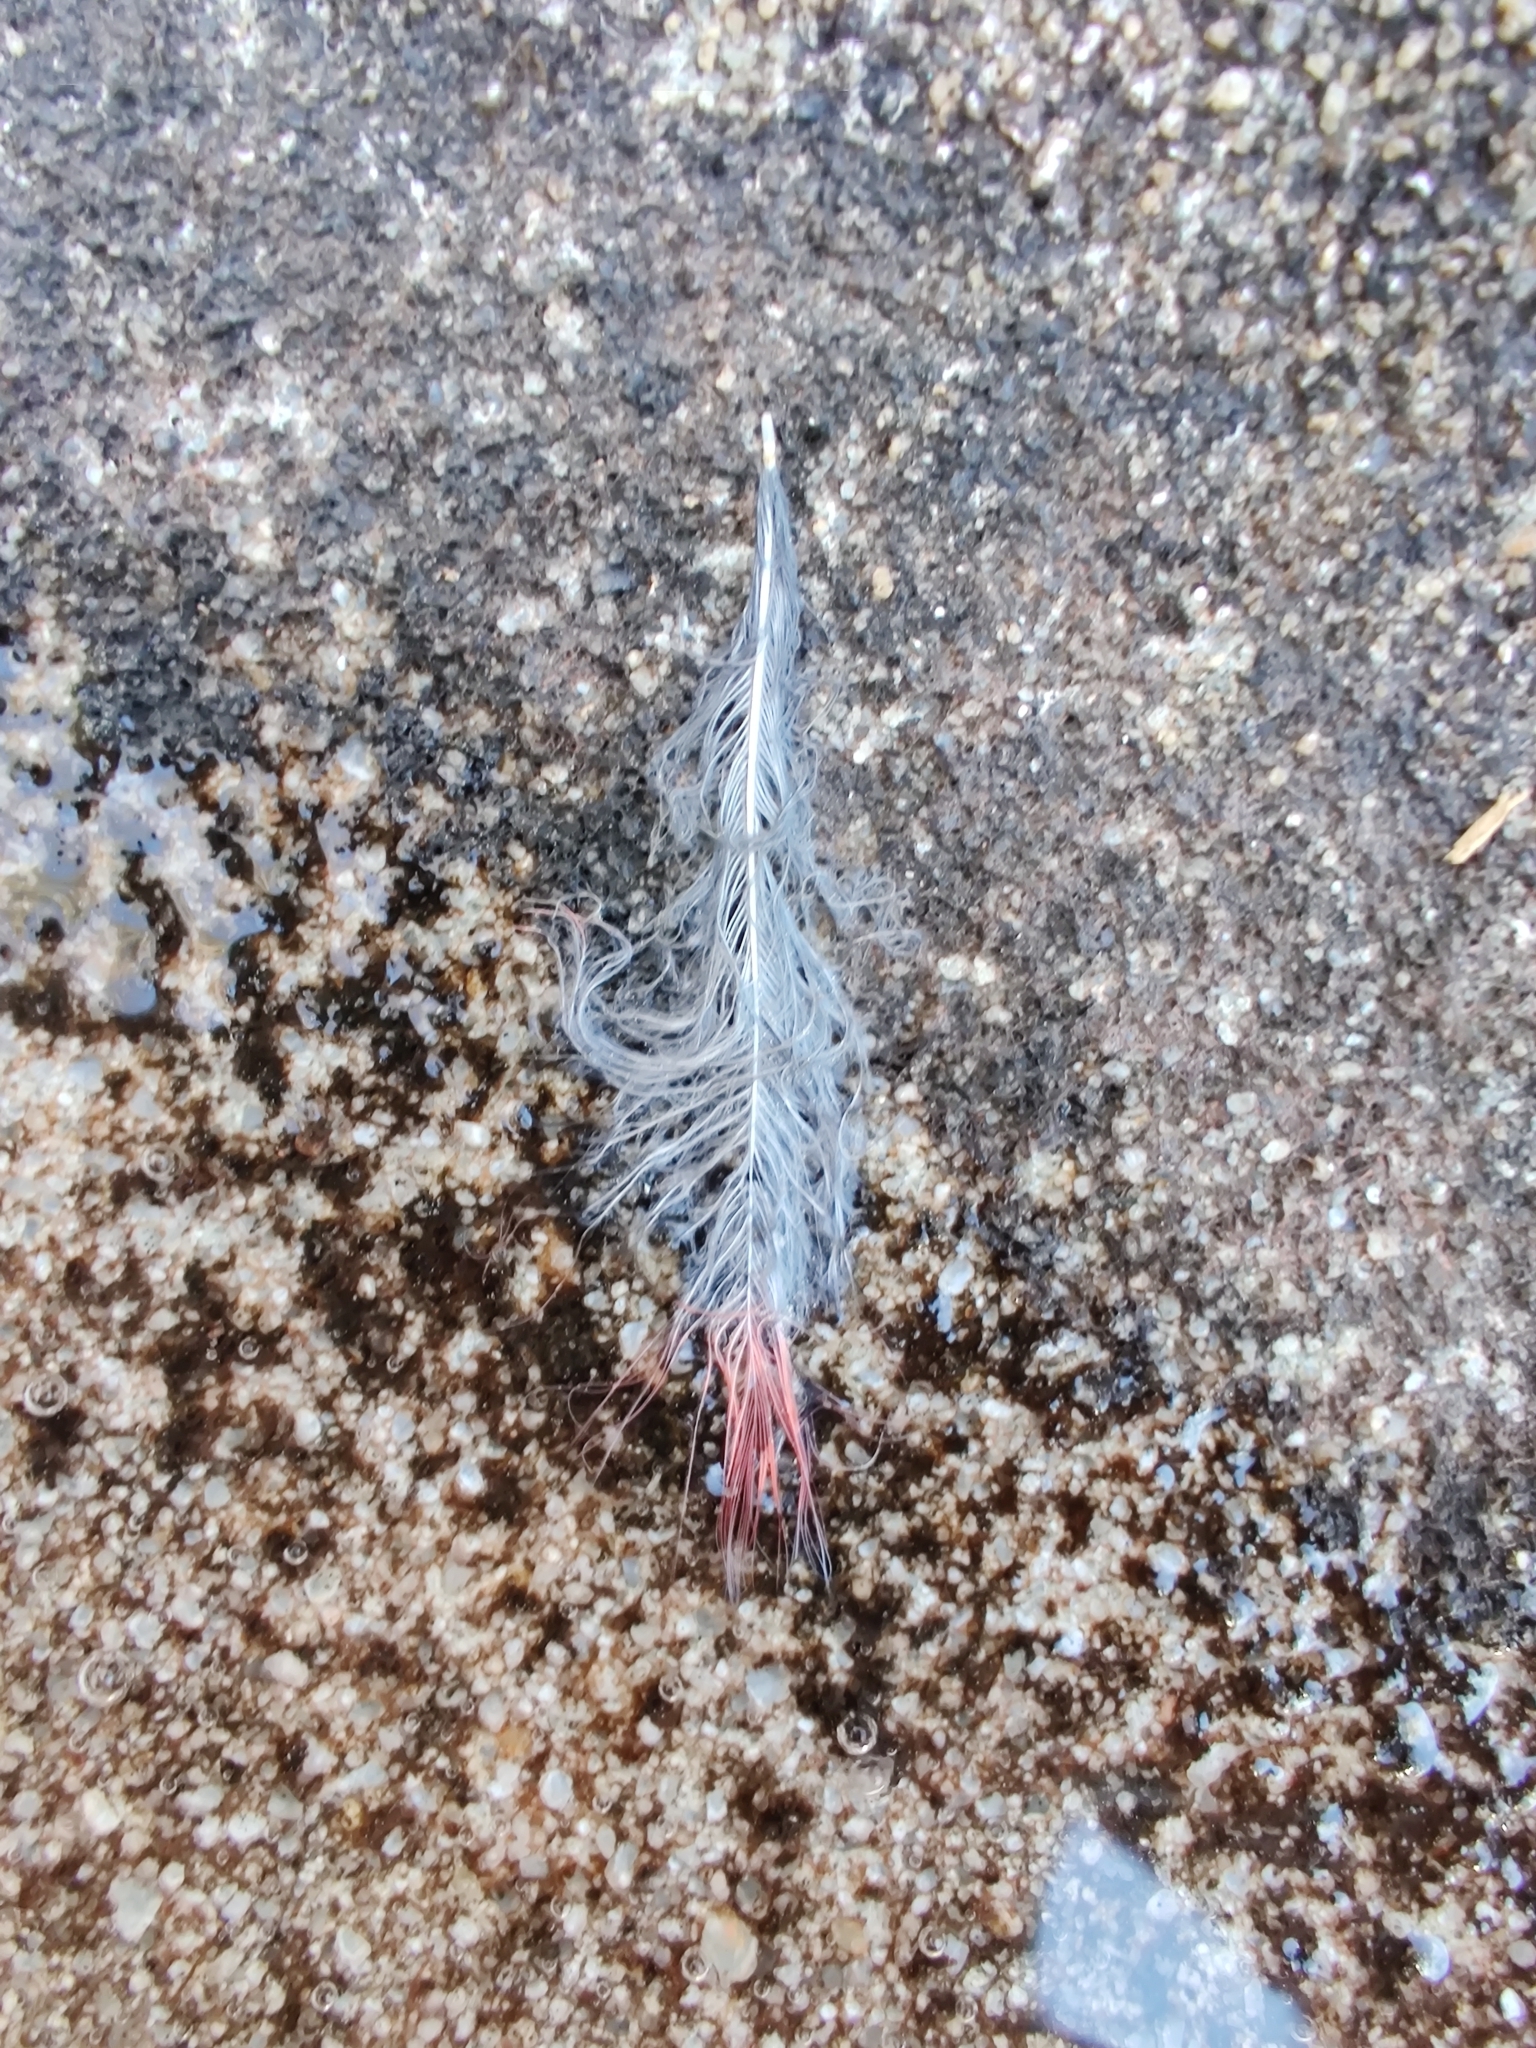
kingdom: Animalia
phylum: Chordata
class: Aves
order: Passeriformes
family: Cardinalidae
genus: Cardinalis
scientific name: Cardinalis cardinalis
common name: Northern cardinal
